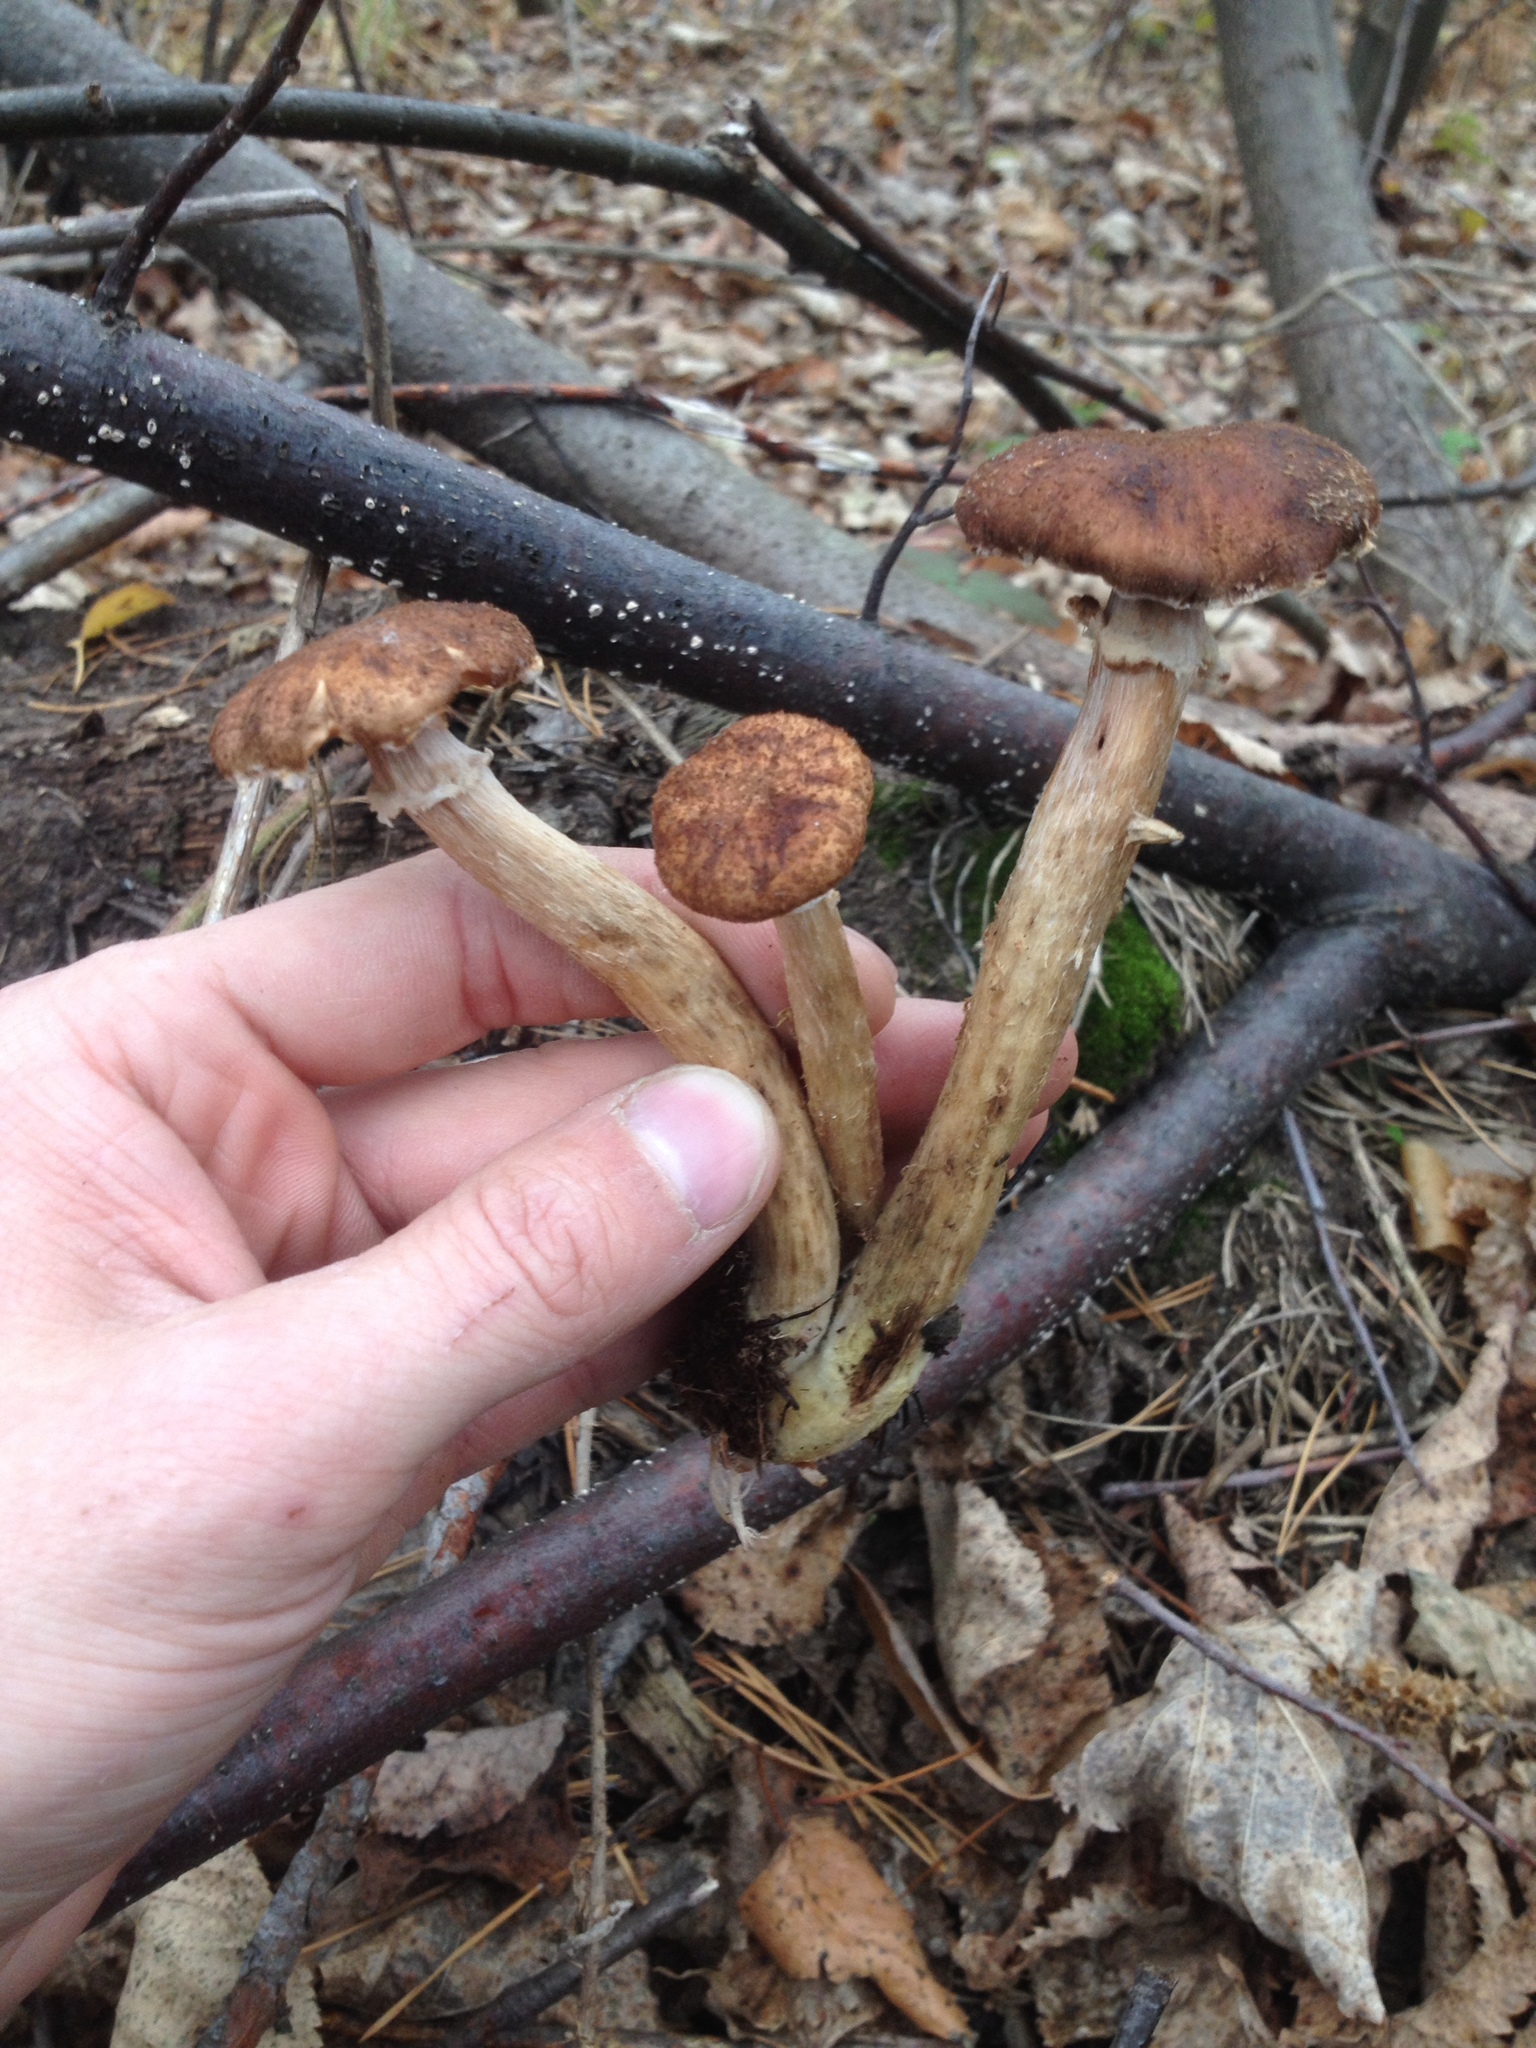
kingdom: Fungi
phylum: Basidiomycota
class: Agaricomycetes
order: Agaricales
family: Physalacriaceae
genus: Armillaria
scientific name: Armillaria borealis
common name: Northern honey fungus
